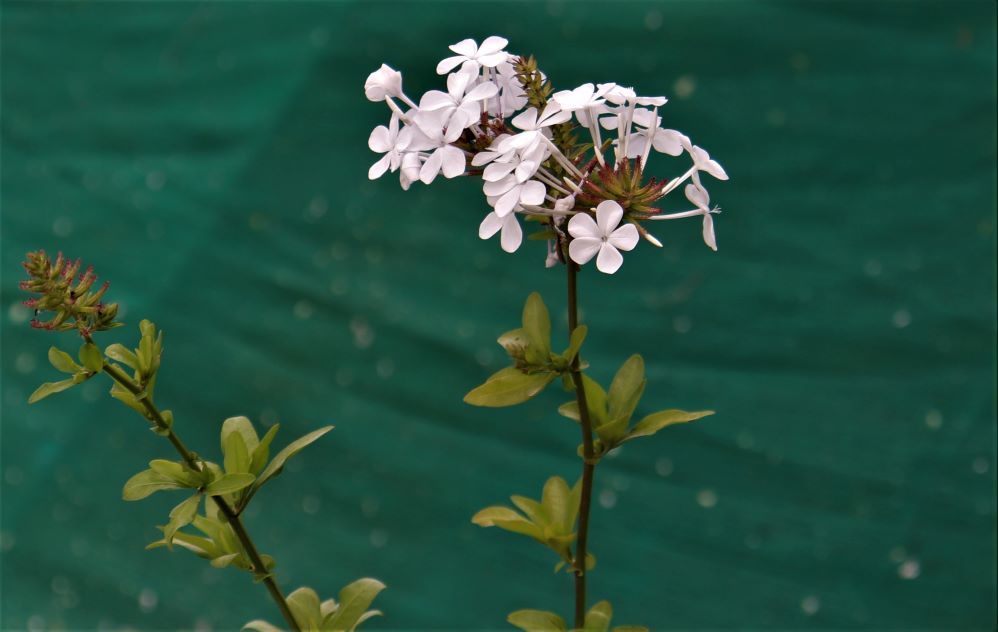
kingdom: Plantae
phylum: Tracheophyta
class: Magnoliopsida
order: Caryophyllales
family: Plumbaginaceae
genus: Plumbago
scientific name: Plumbago auriculata
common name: Cape leadwort
